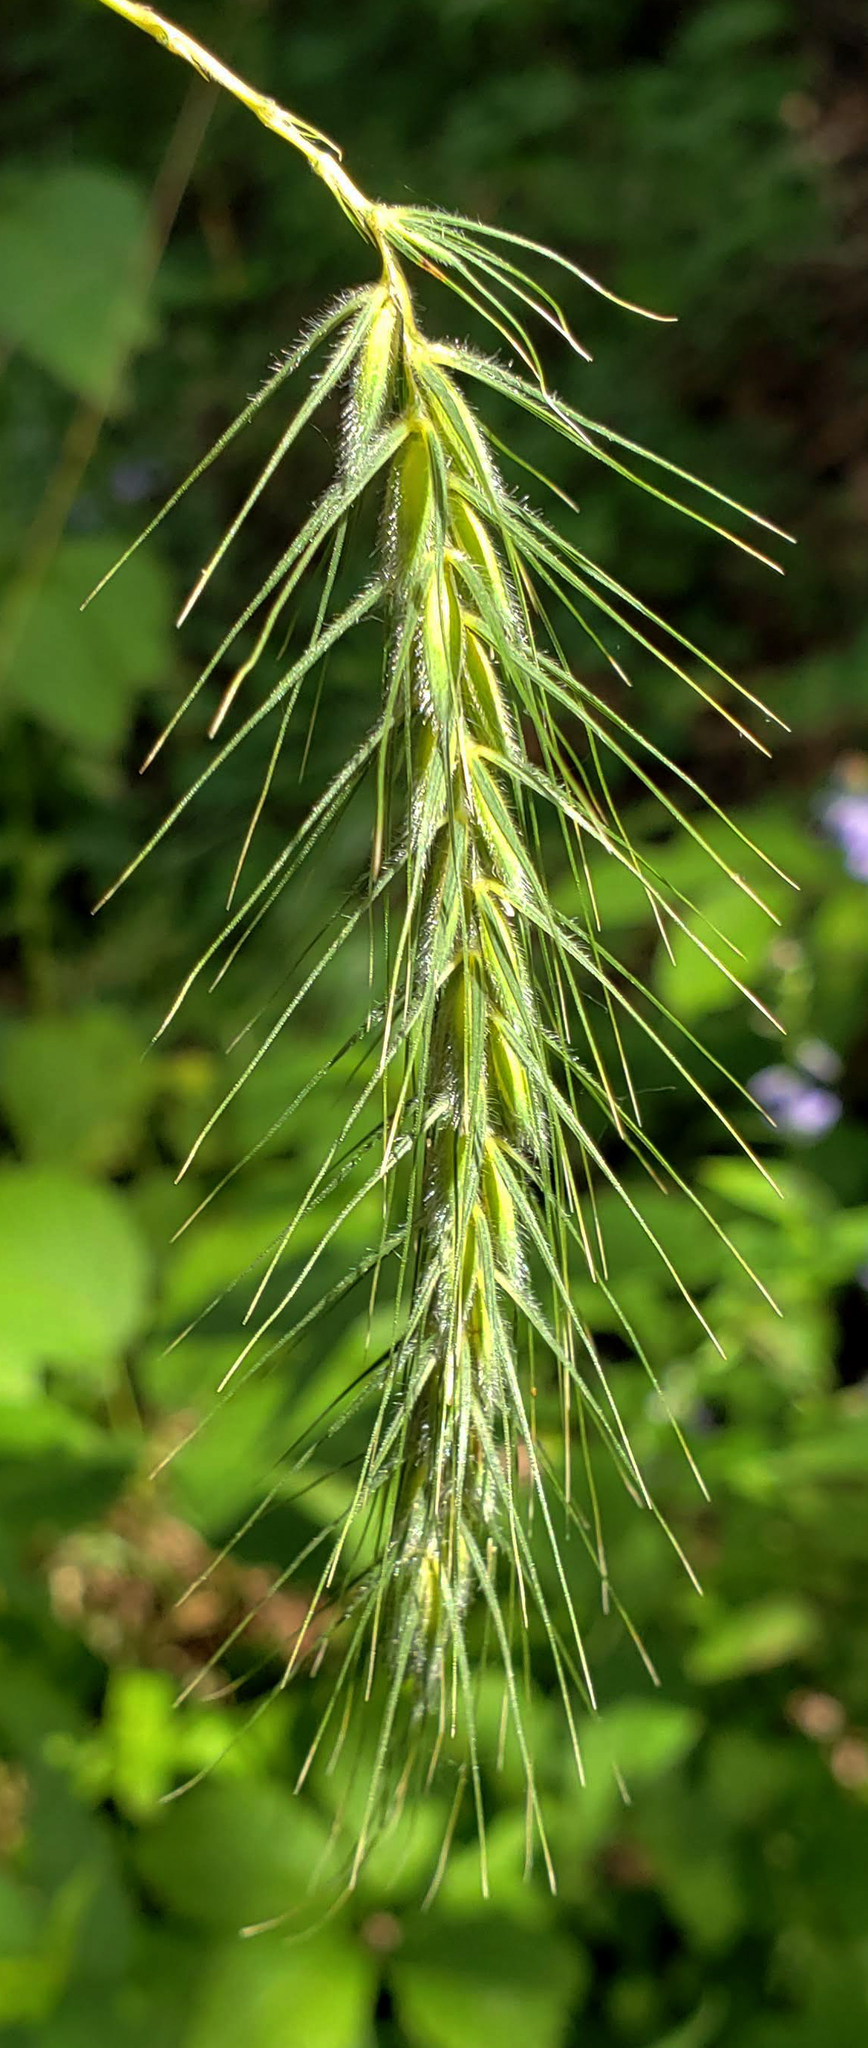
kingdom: Plantae
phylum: Tracheophyta
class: Liliopsida
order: Poales
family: Poaceae
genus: Elymus
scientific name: Elymus villosus
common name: Downy wild rye
